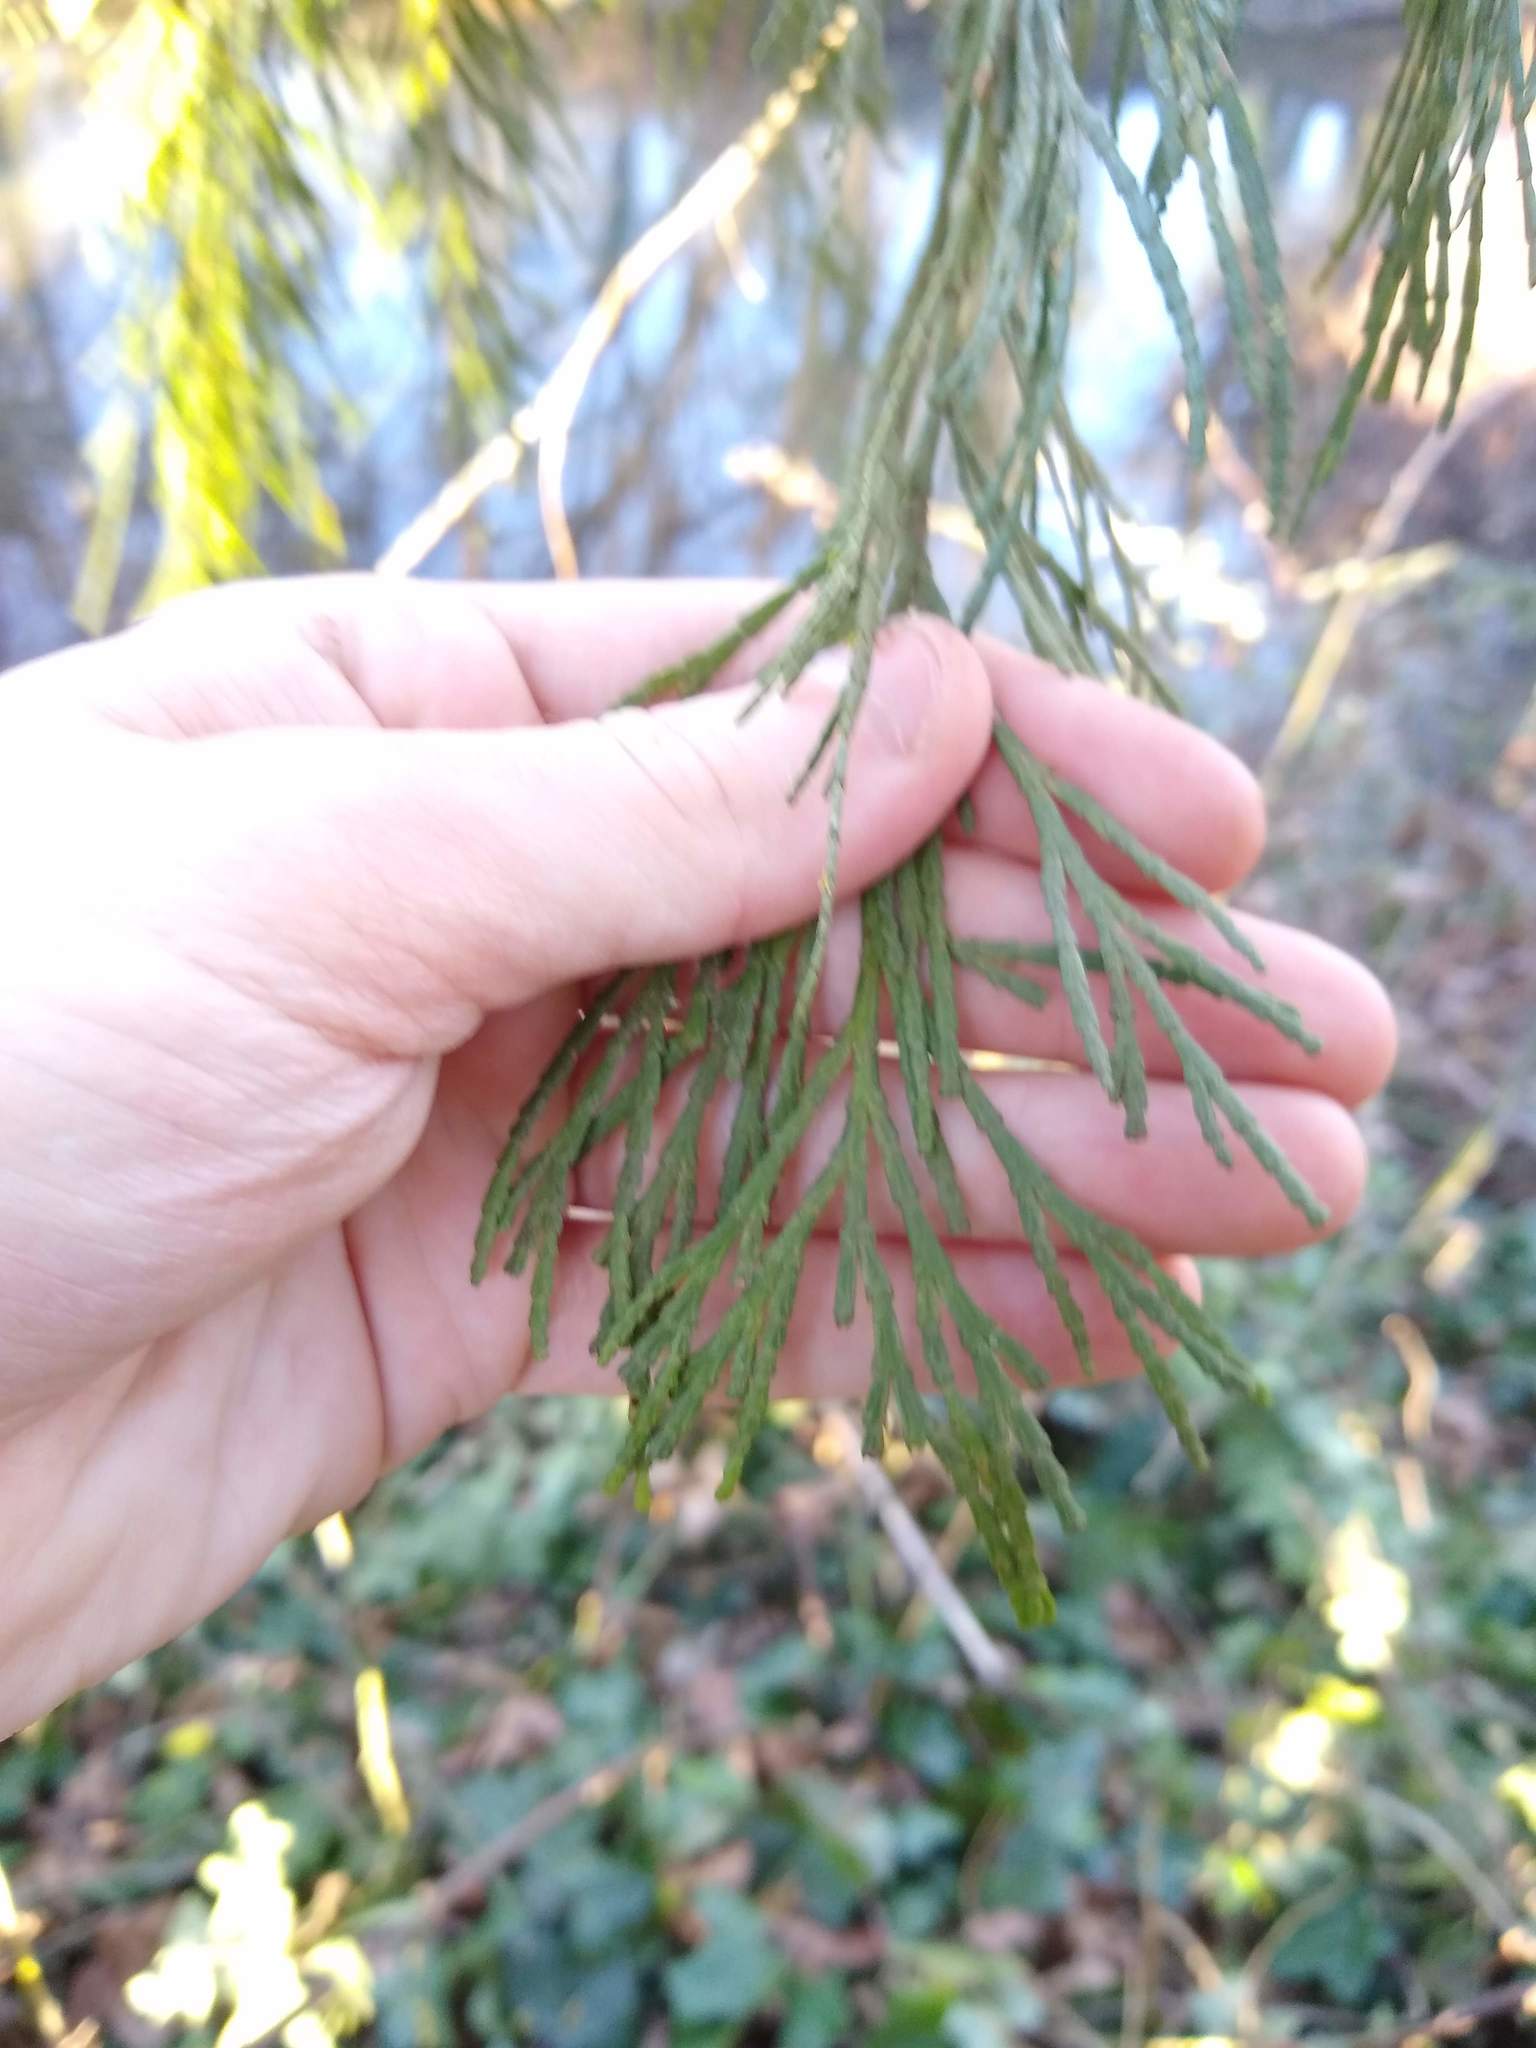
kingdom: Plantae
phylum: Tracheophyta
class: Pinopsida
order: Pinales
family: Cupressaceae
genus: Calocedrus
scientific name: Calocedrus decurrens
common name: Californian incense-cedar
